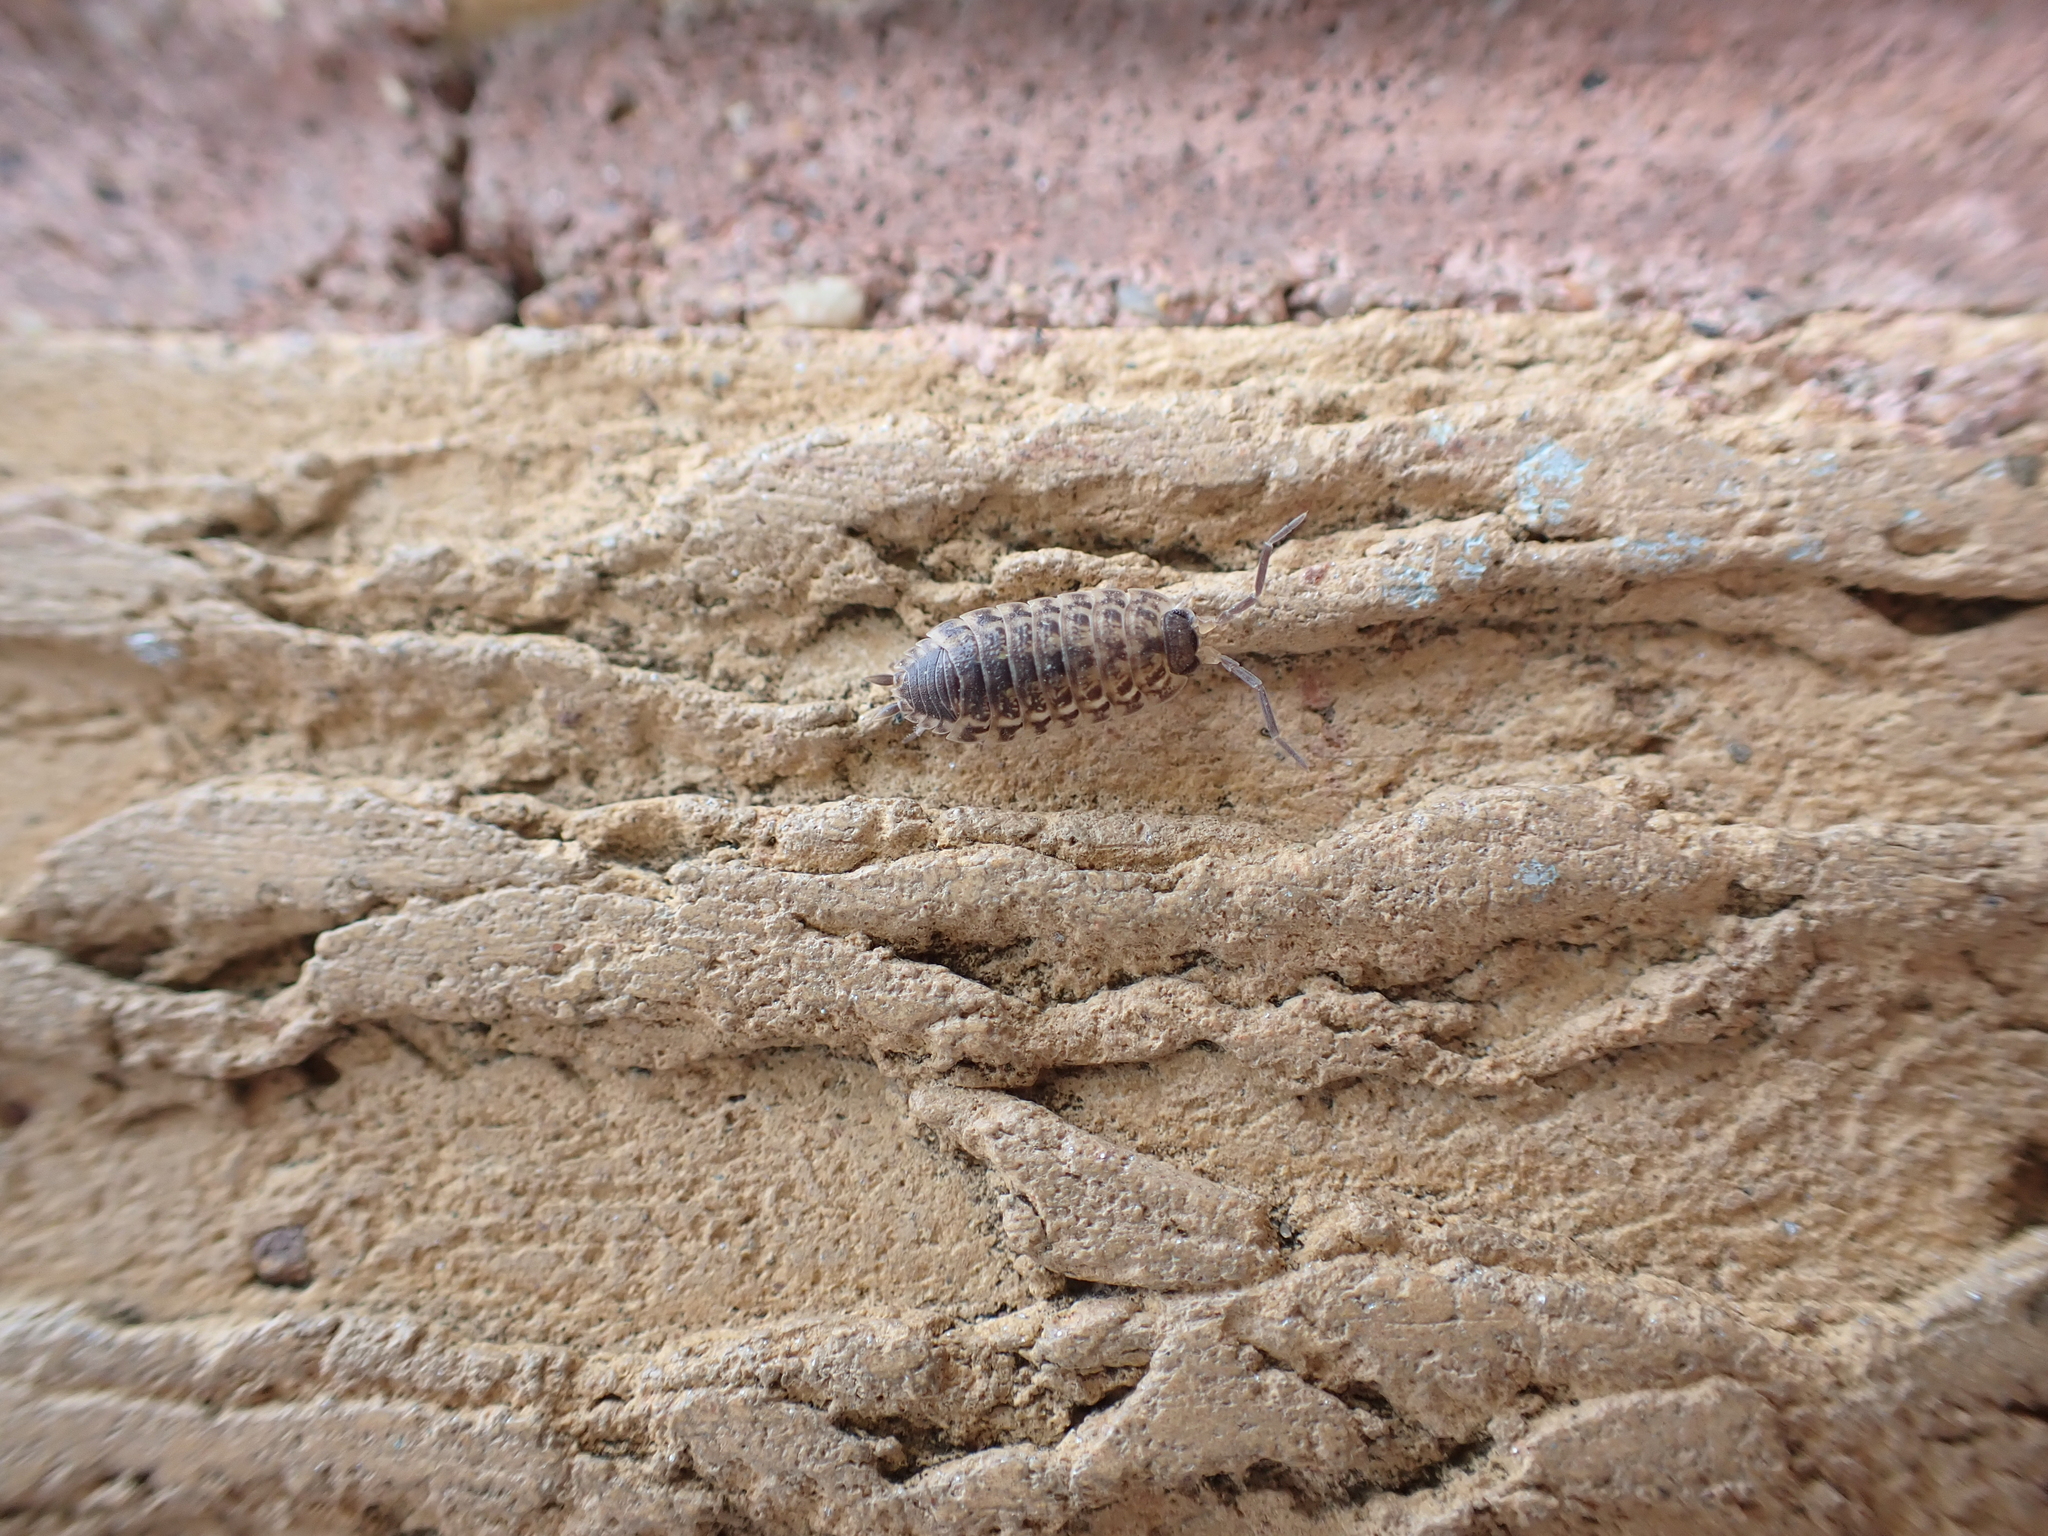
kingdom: Animalia
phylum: Arthropoda
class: Malacostraca
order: Isopoda
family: Porcellionidae
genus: Porcellio
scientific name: Porcellio spinicornis
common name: Painted woodlouse
